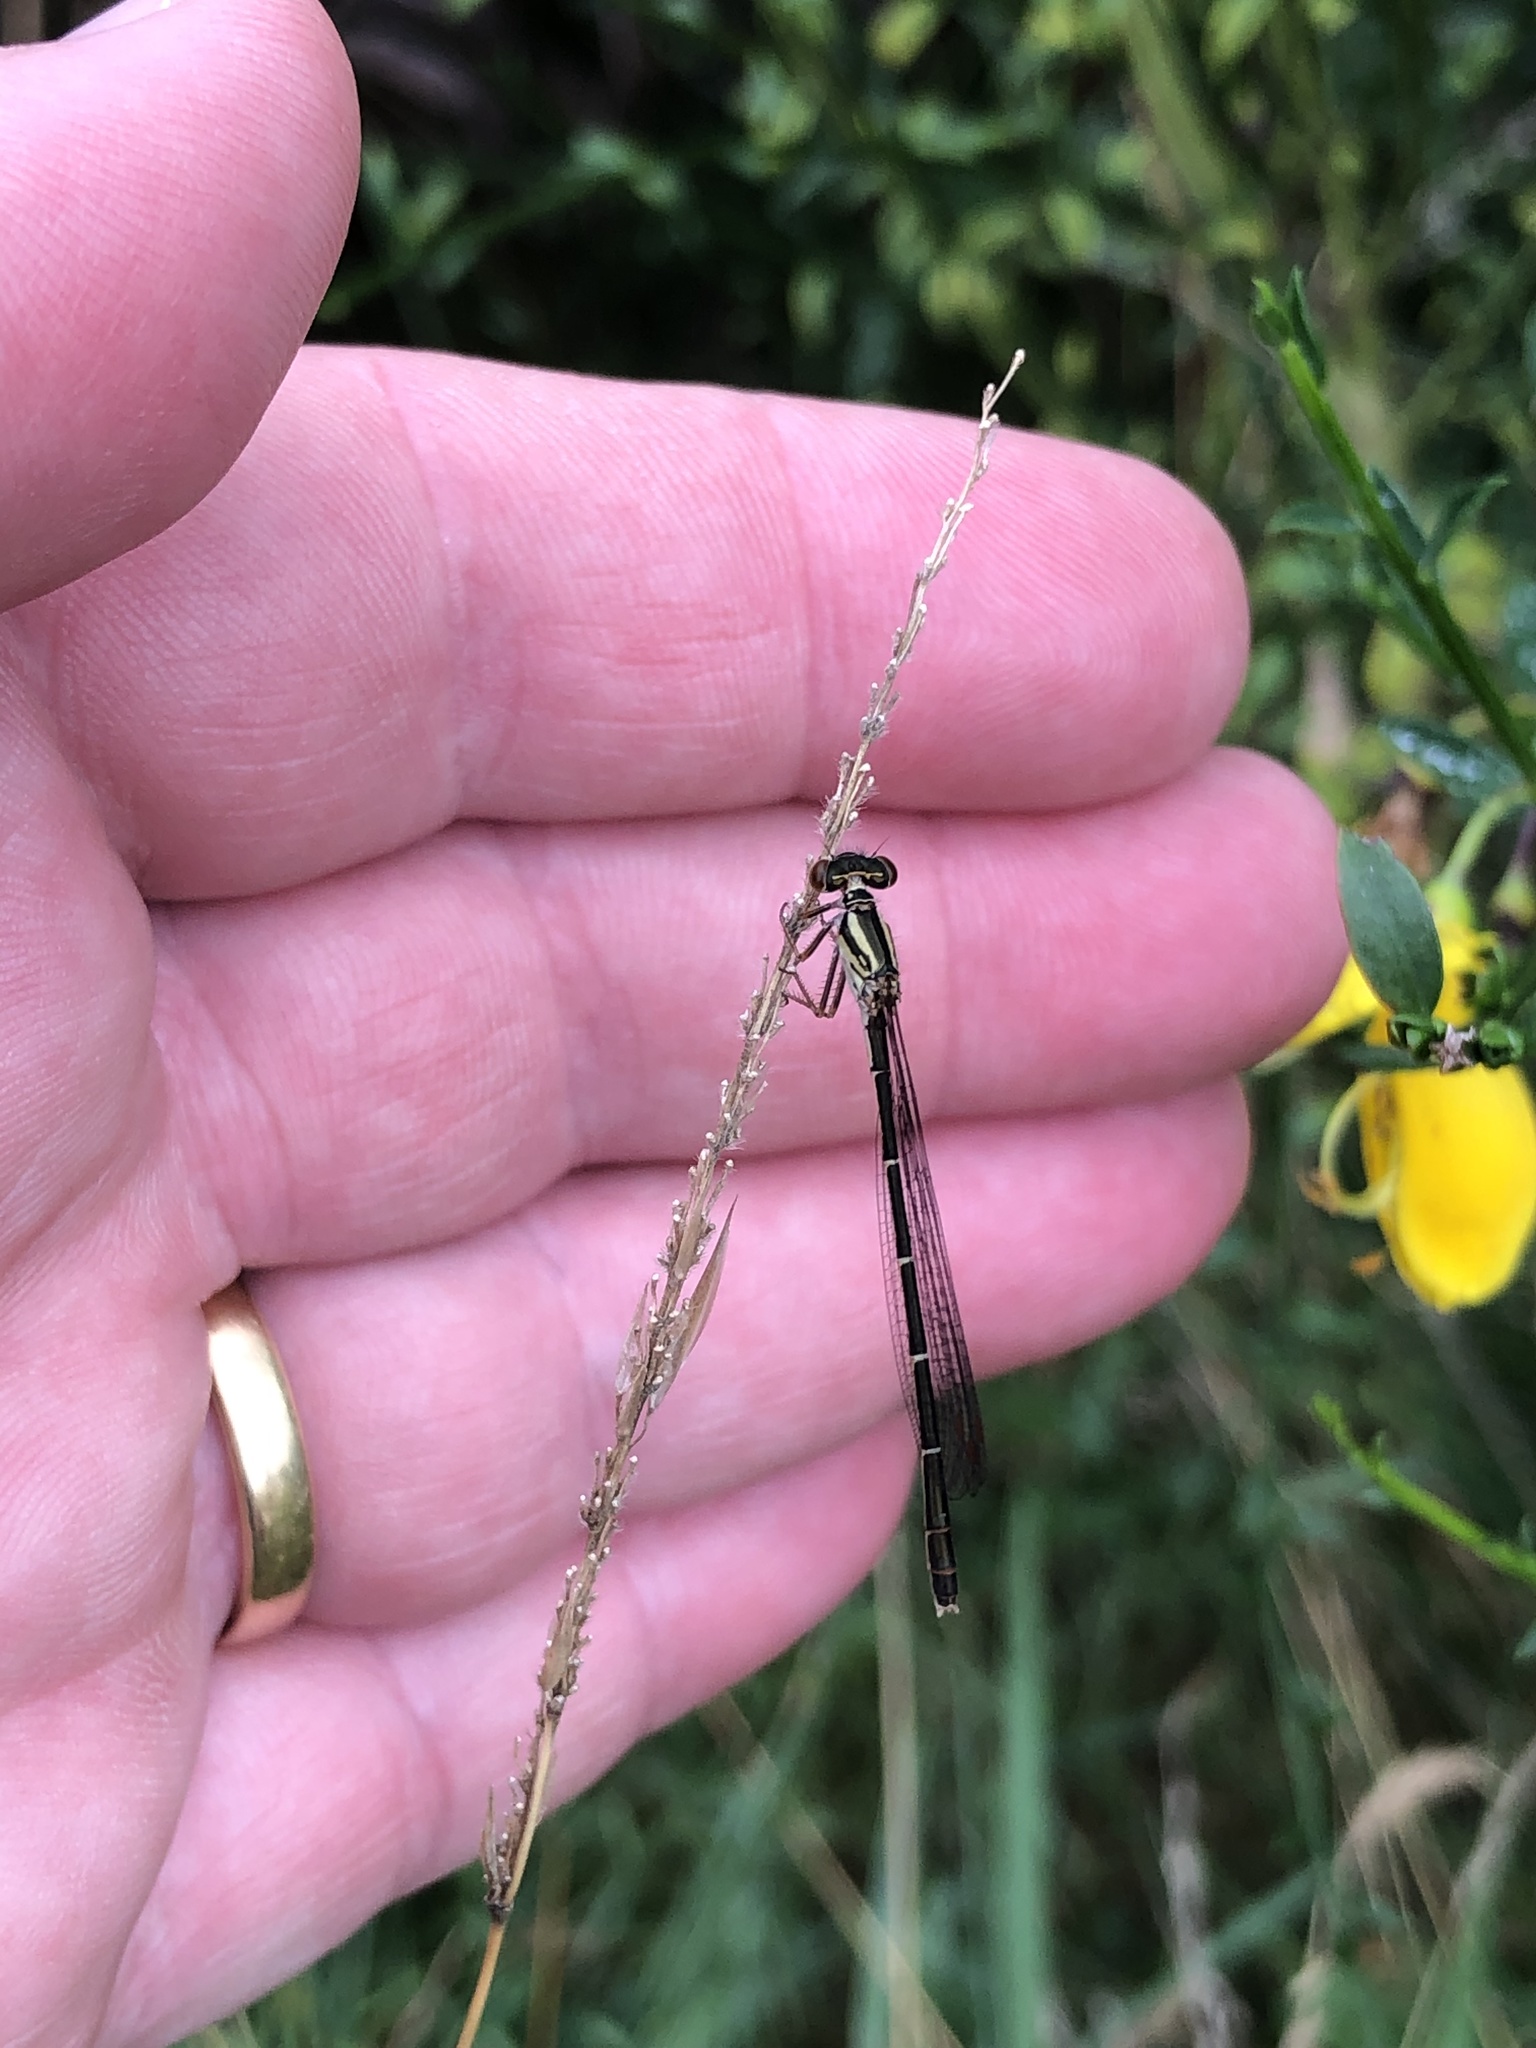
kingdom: Animalia
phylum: Arthropoda
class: Insecta
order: Odonata
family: Coenagrionidae
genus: Xanthocnemis
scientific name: Xanthocnemis zealandica
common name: Common redcoat damselfly
